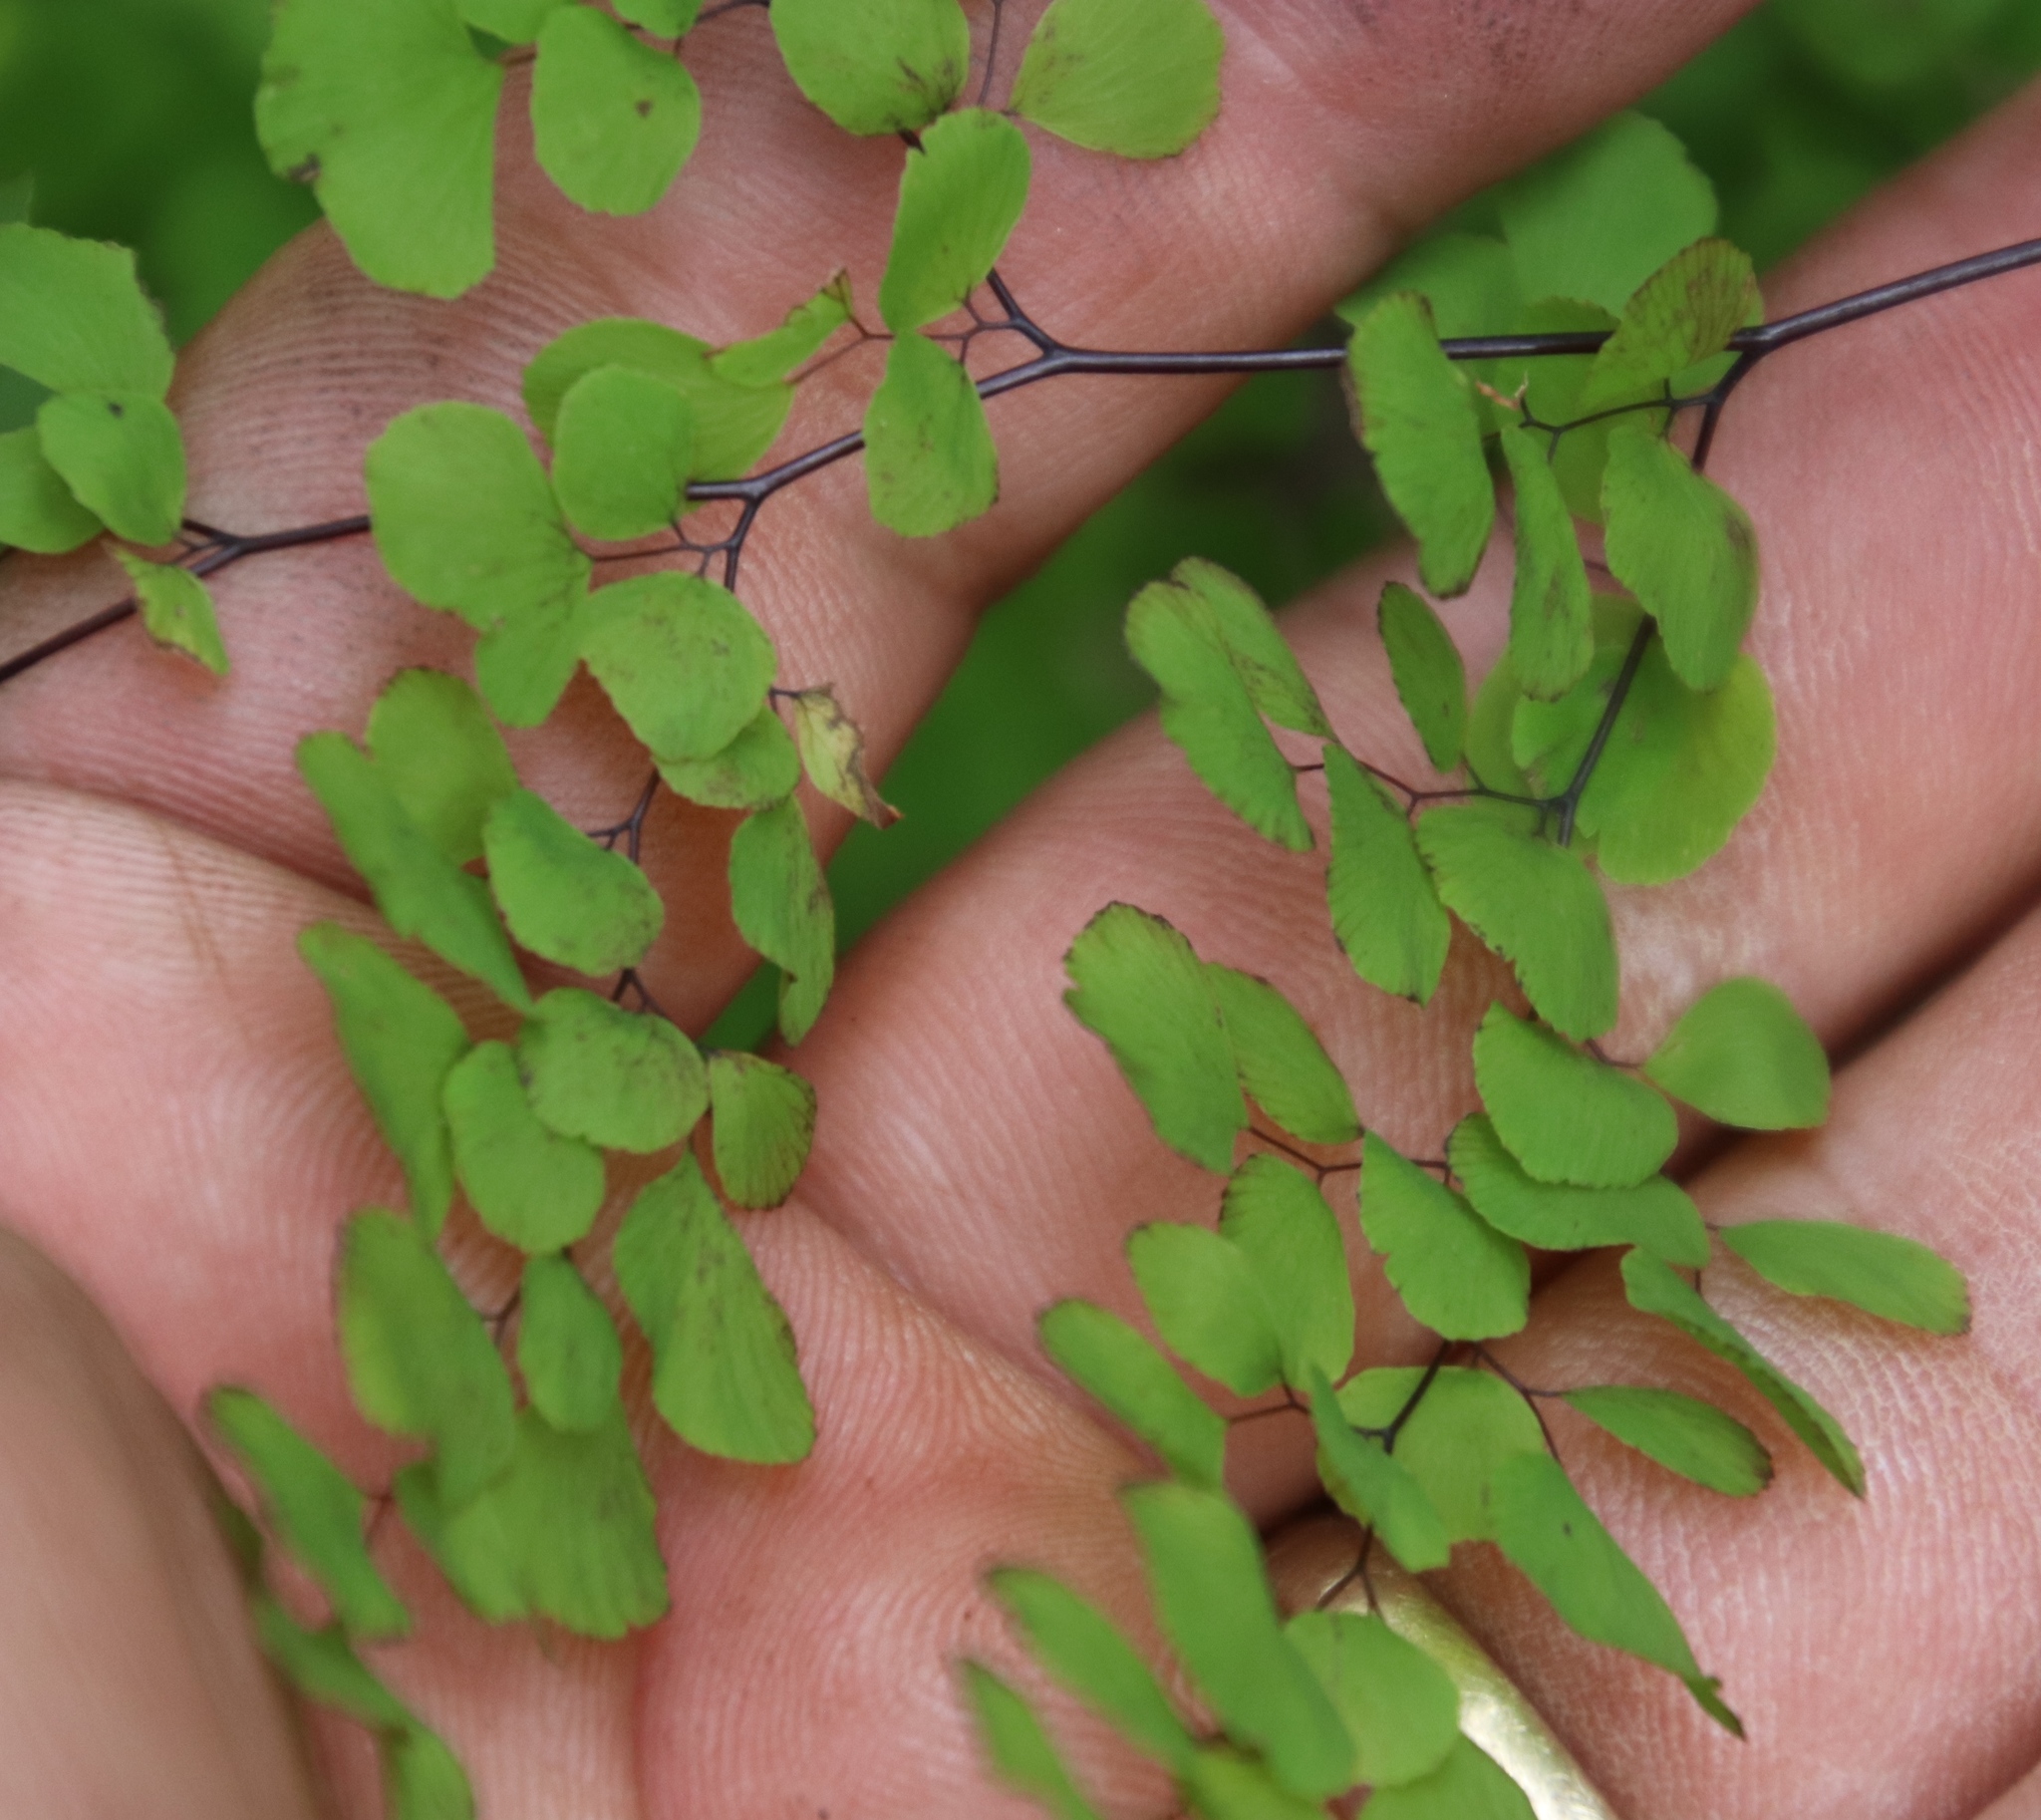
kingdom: Plantae
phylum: Tracheophyta
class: Polypodiopsida
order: Polypodiales
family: Pteridaceae
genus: Adiantum
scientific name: Adiantum aethiopicum
